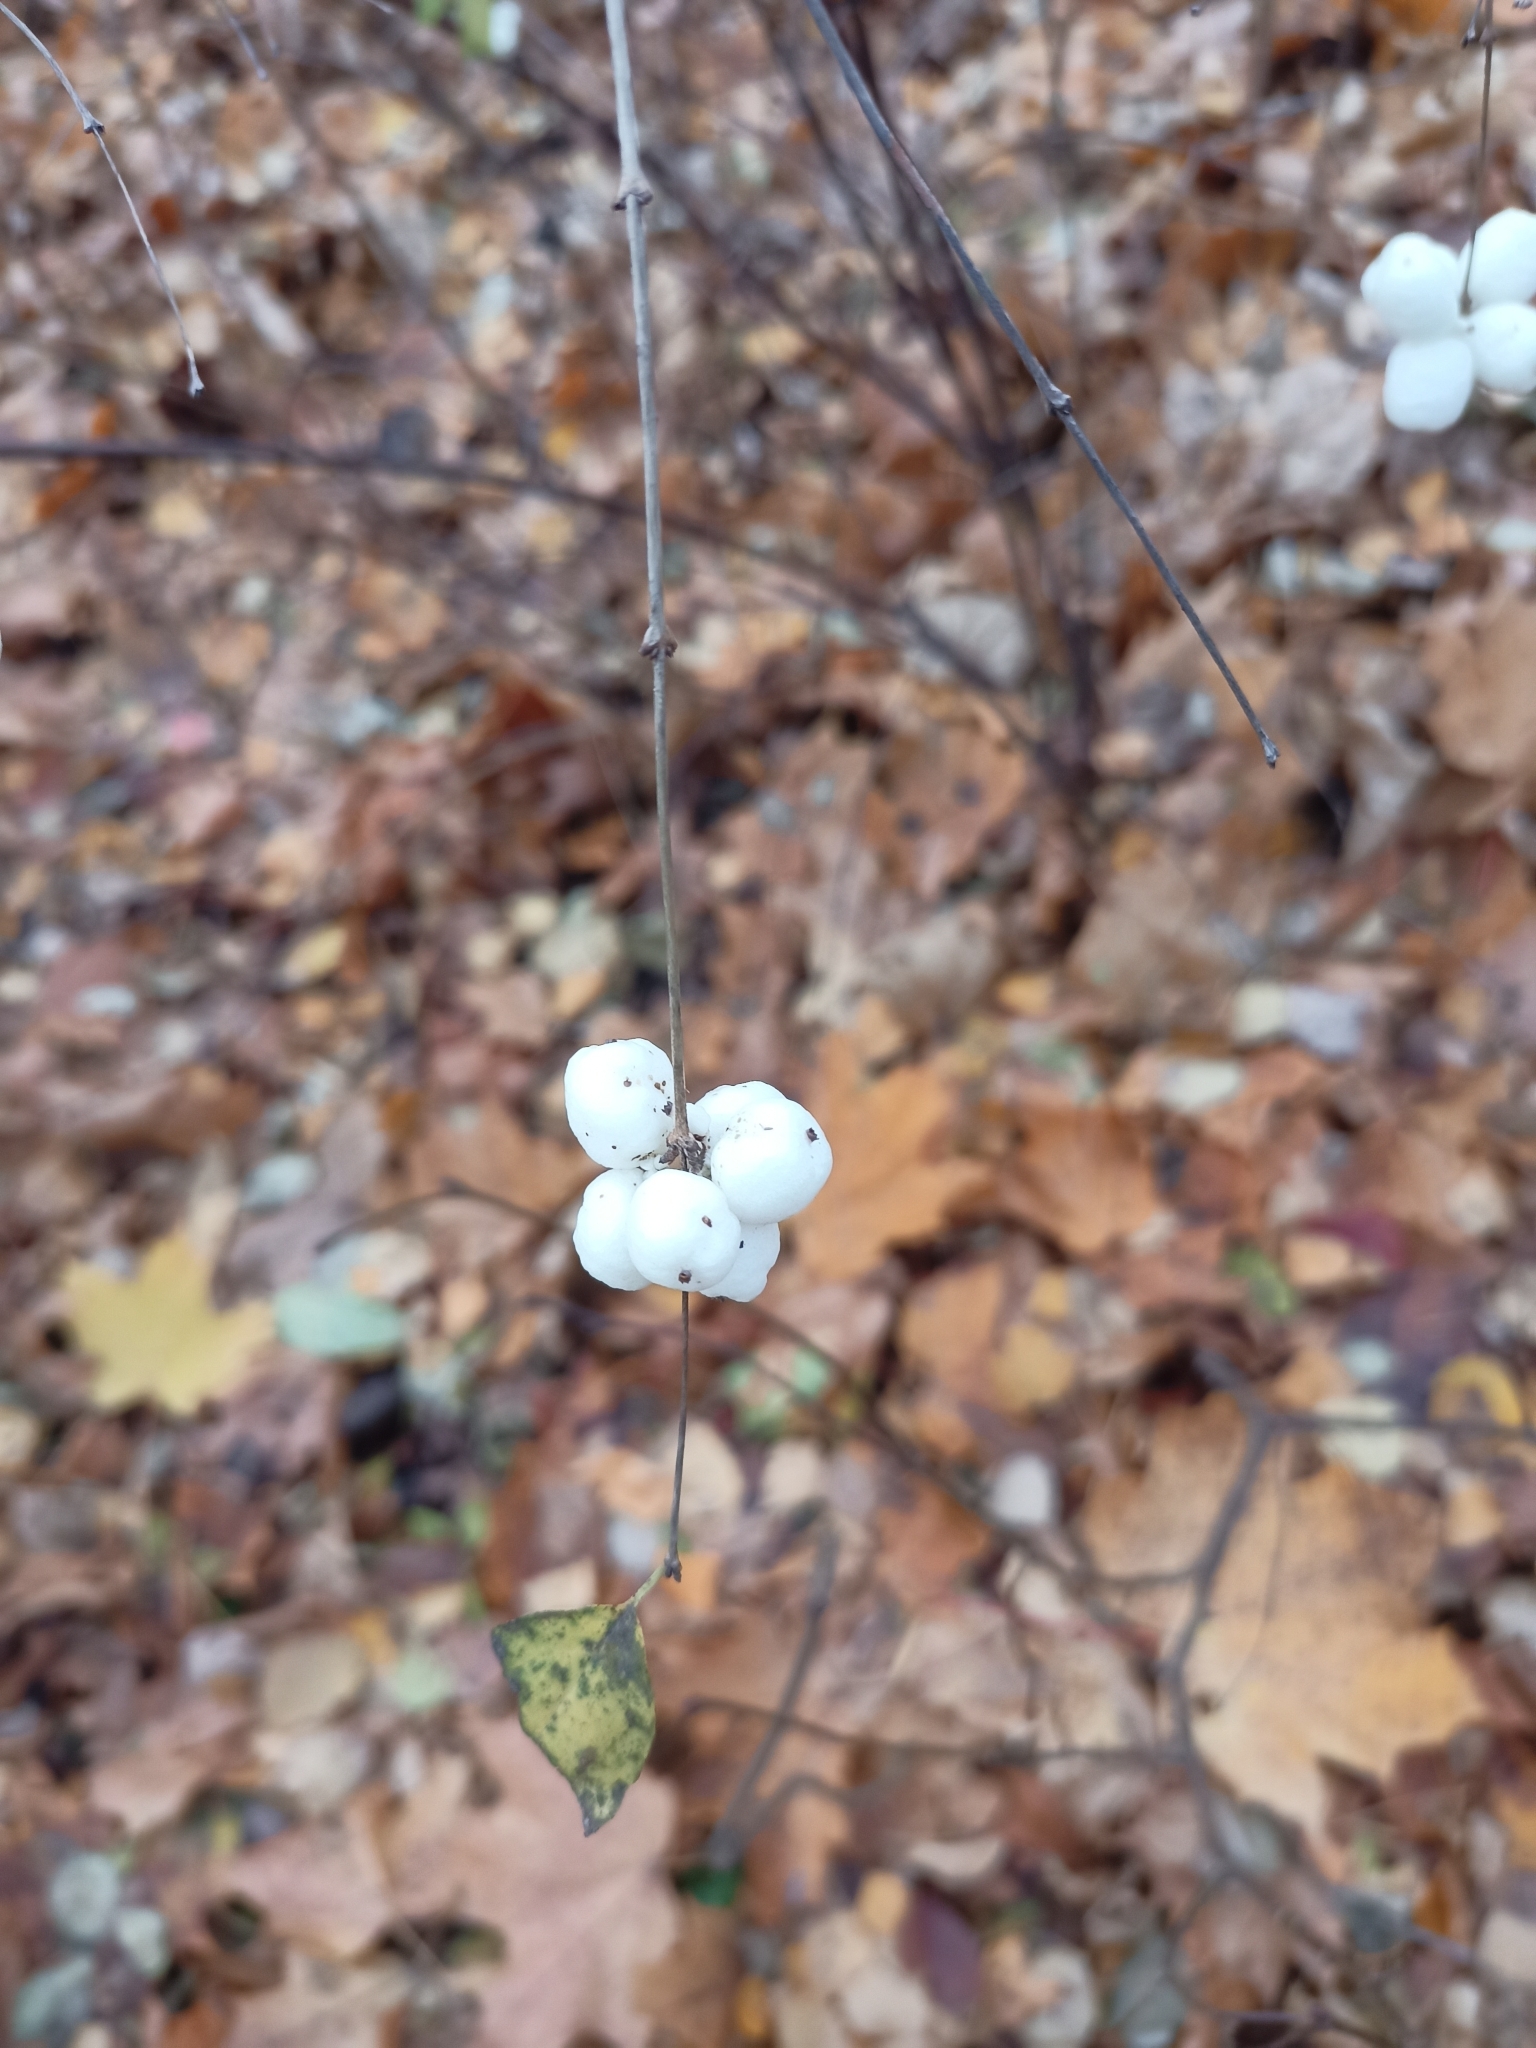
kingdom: Plantae
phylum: Tracheophyta
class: Magnoliopsida
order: Dipsacales
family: Caprifoliaceae
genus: Symphoricarpos
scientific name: Symphoricarpos albus
